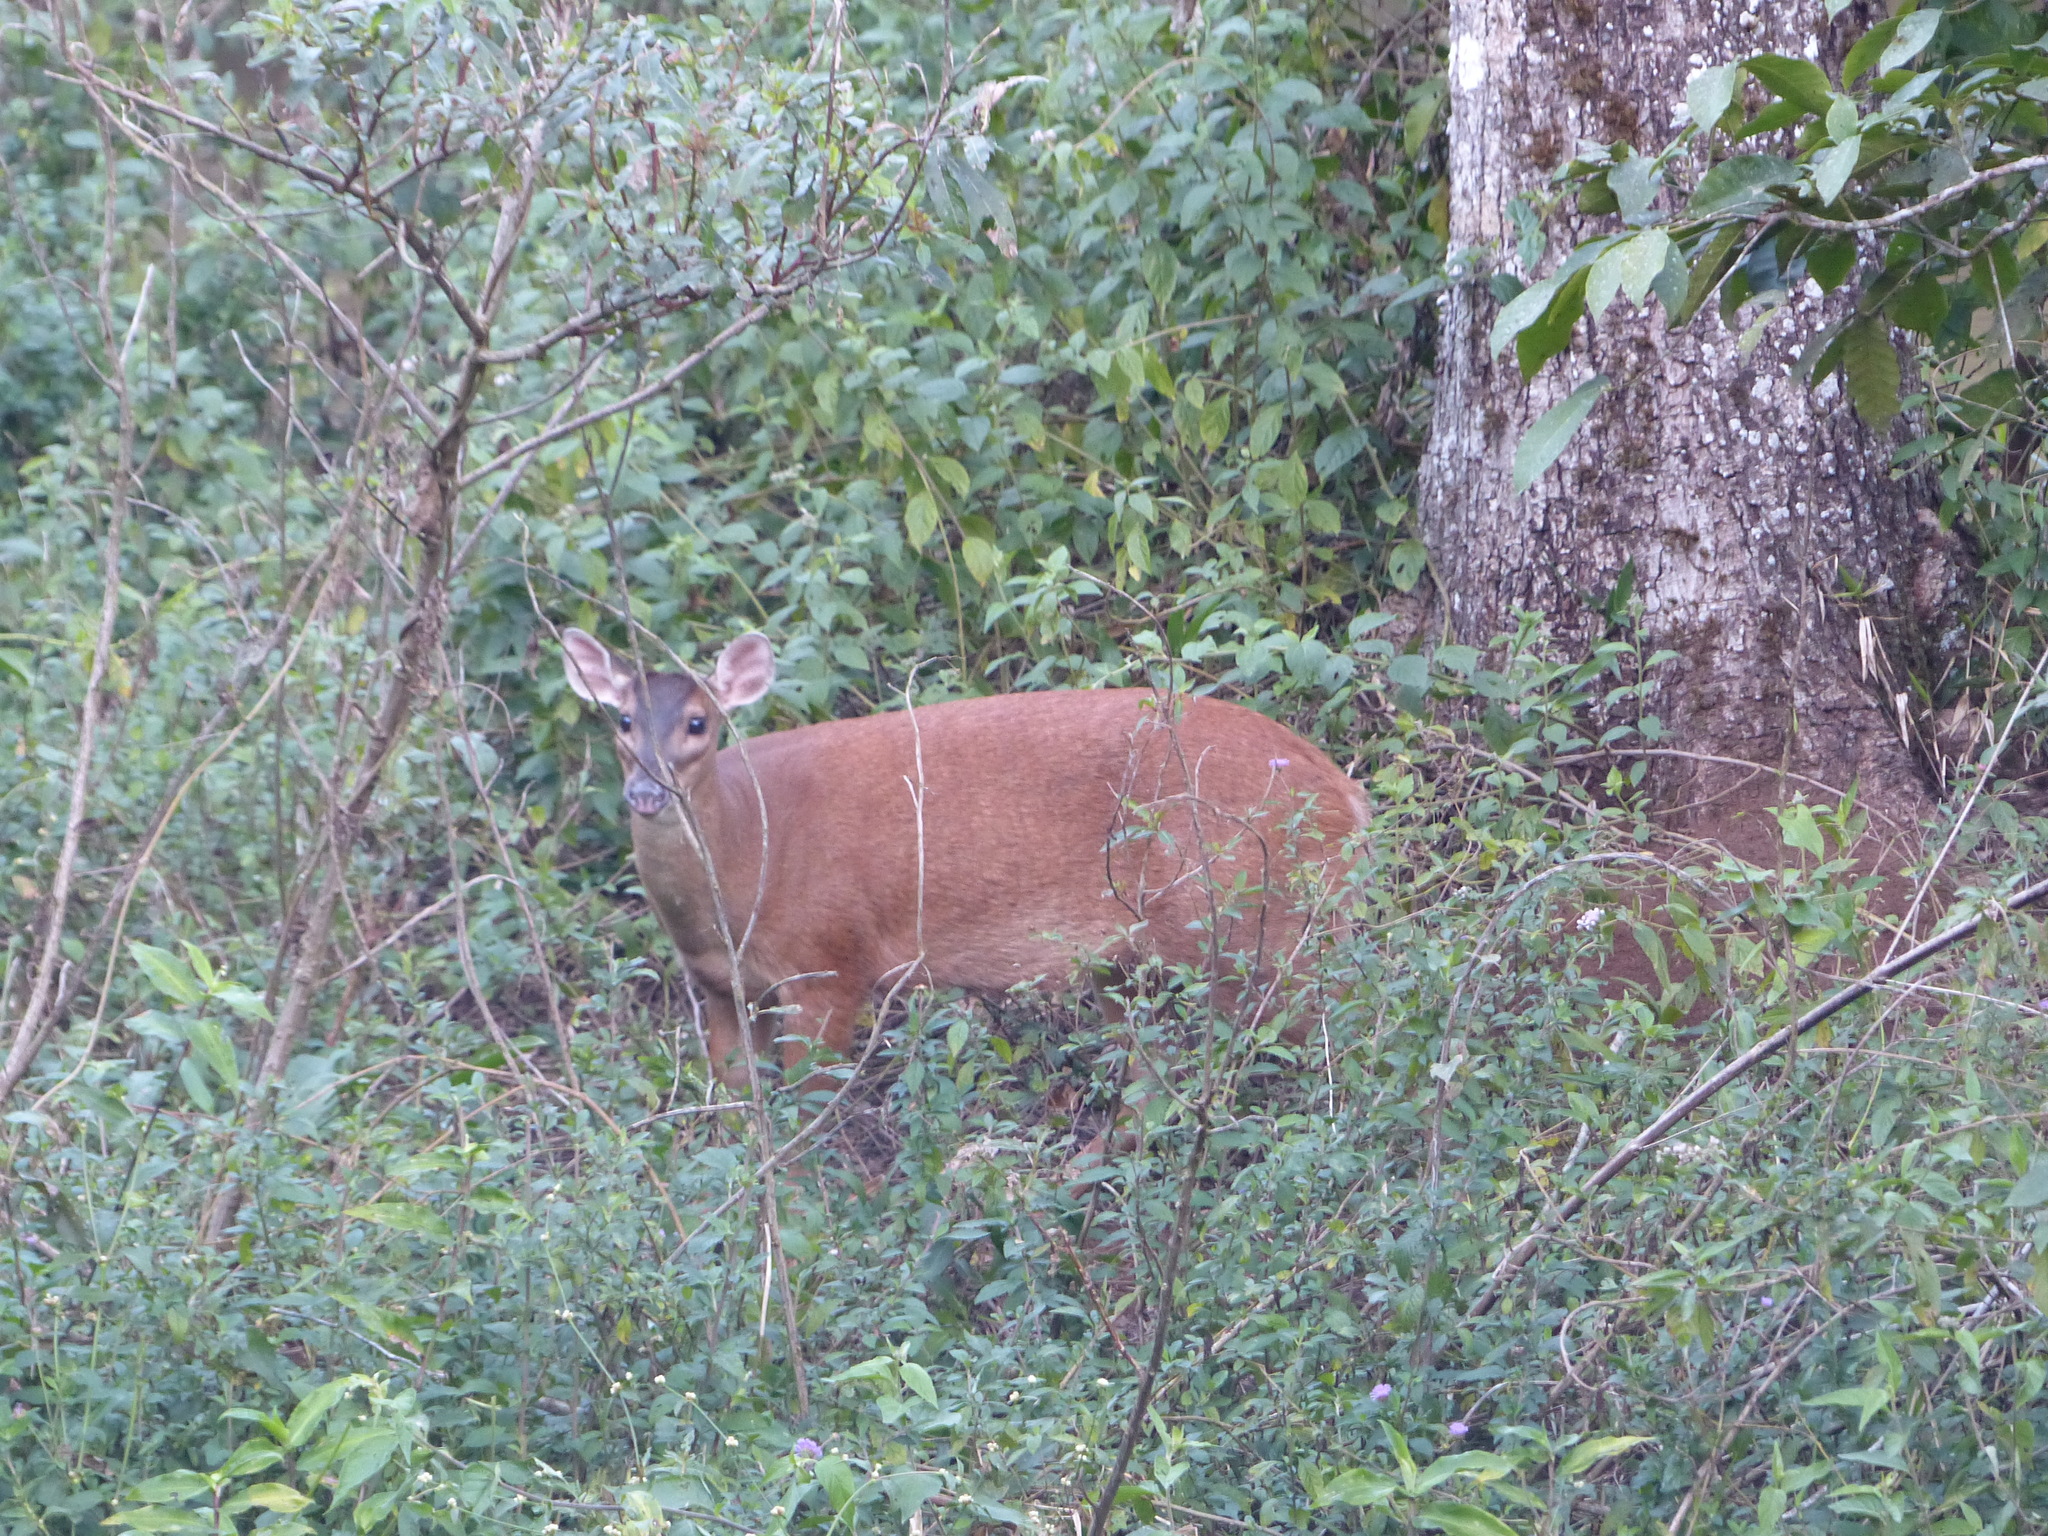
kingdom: Animalia
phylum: Chordata
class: Mammalia
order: Artiodactyla
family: Cervidae
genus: Mazama
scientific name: Mazama americana
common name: Red brocket
